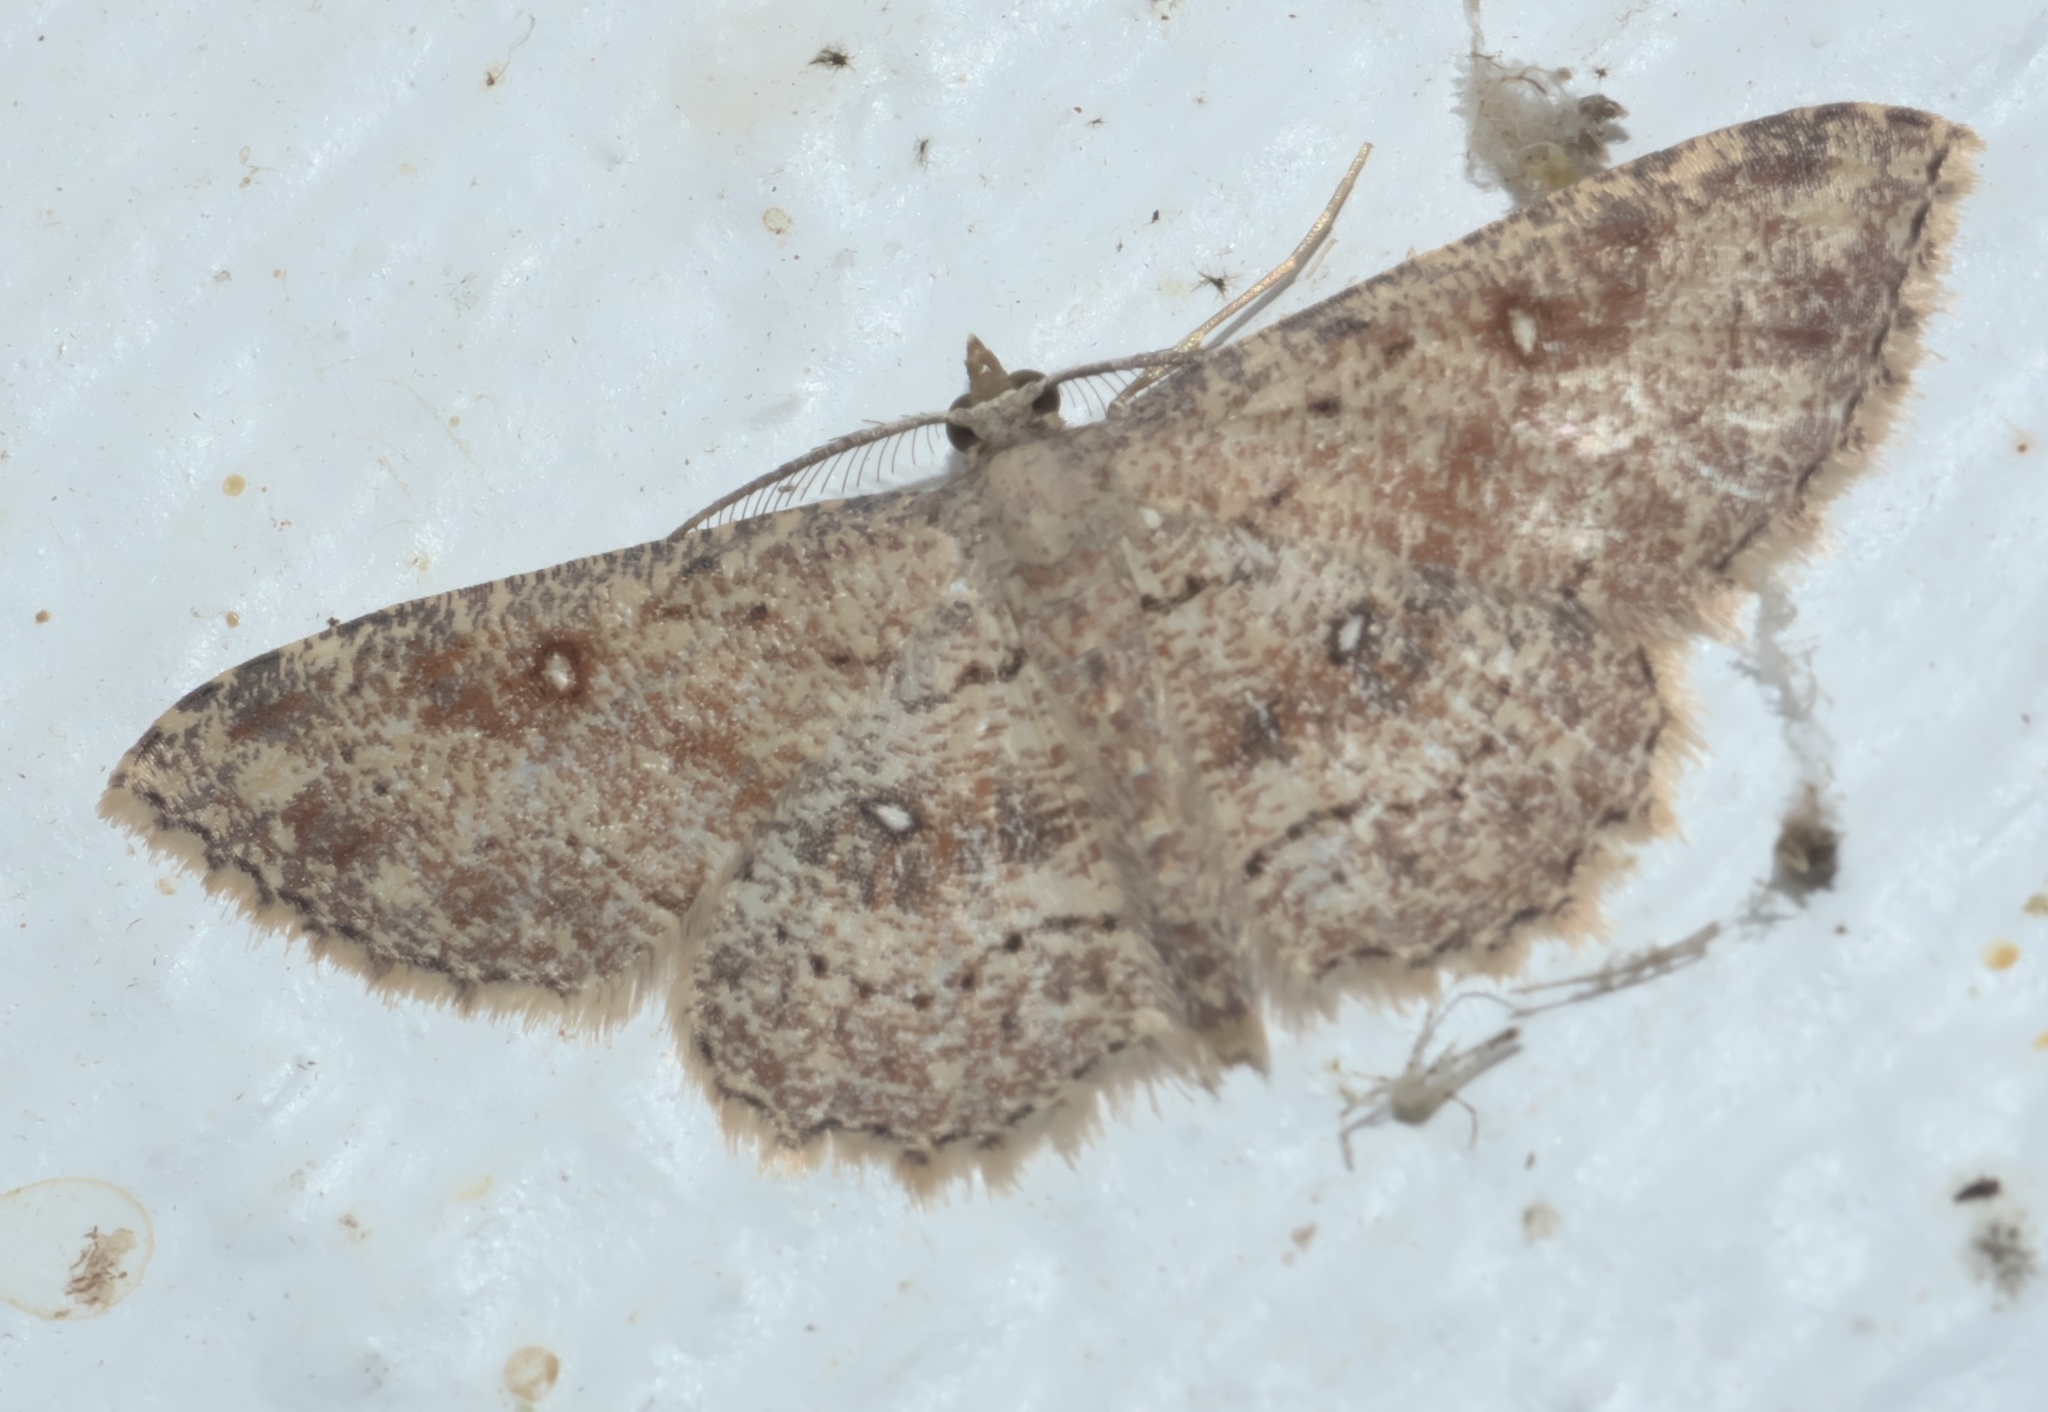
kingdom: Animalia
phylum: Arthropoda
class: Insecta
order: Lepidoptera
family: Geometridae
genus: Cyclophora
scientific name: Cyclophora nanaria
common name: Cankerworm
